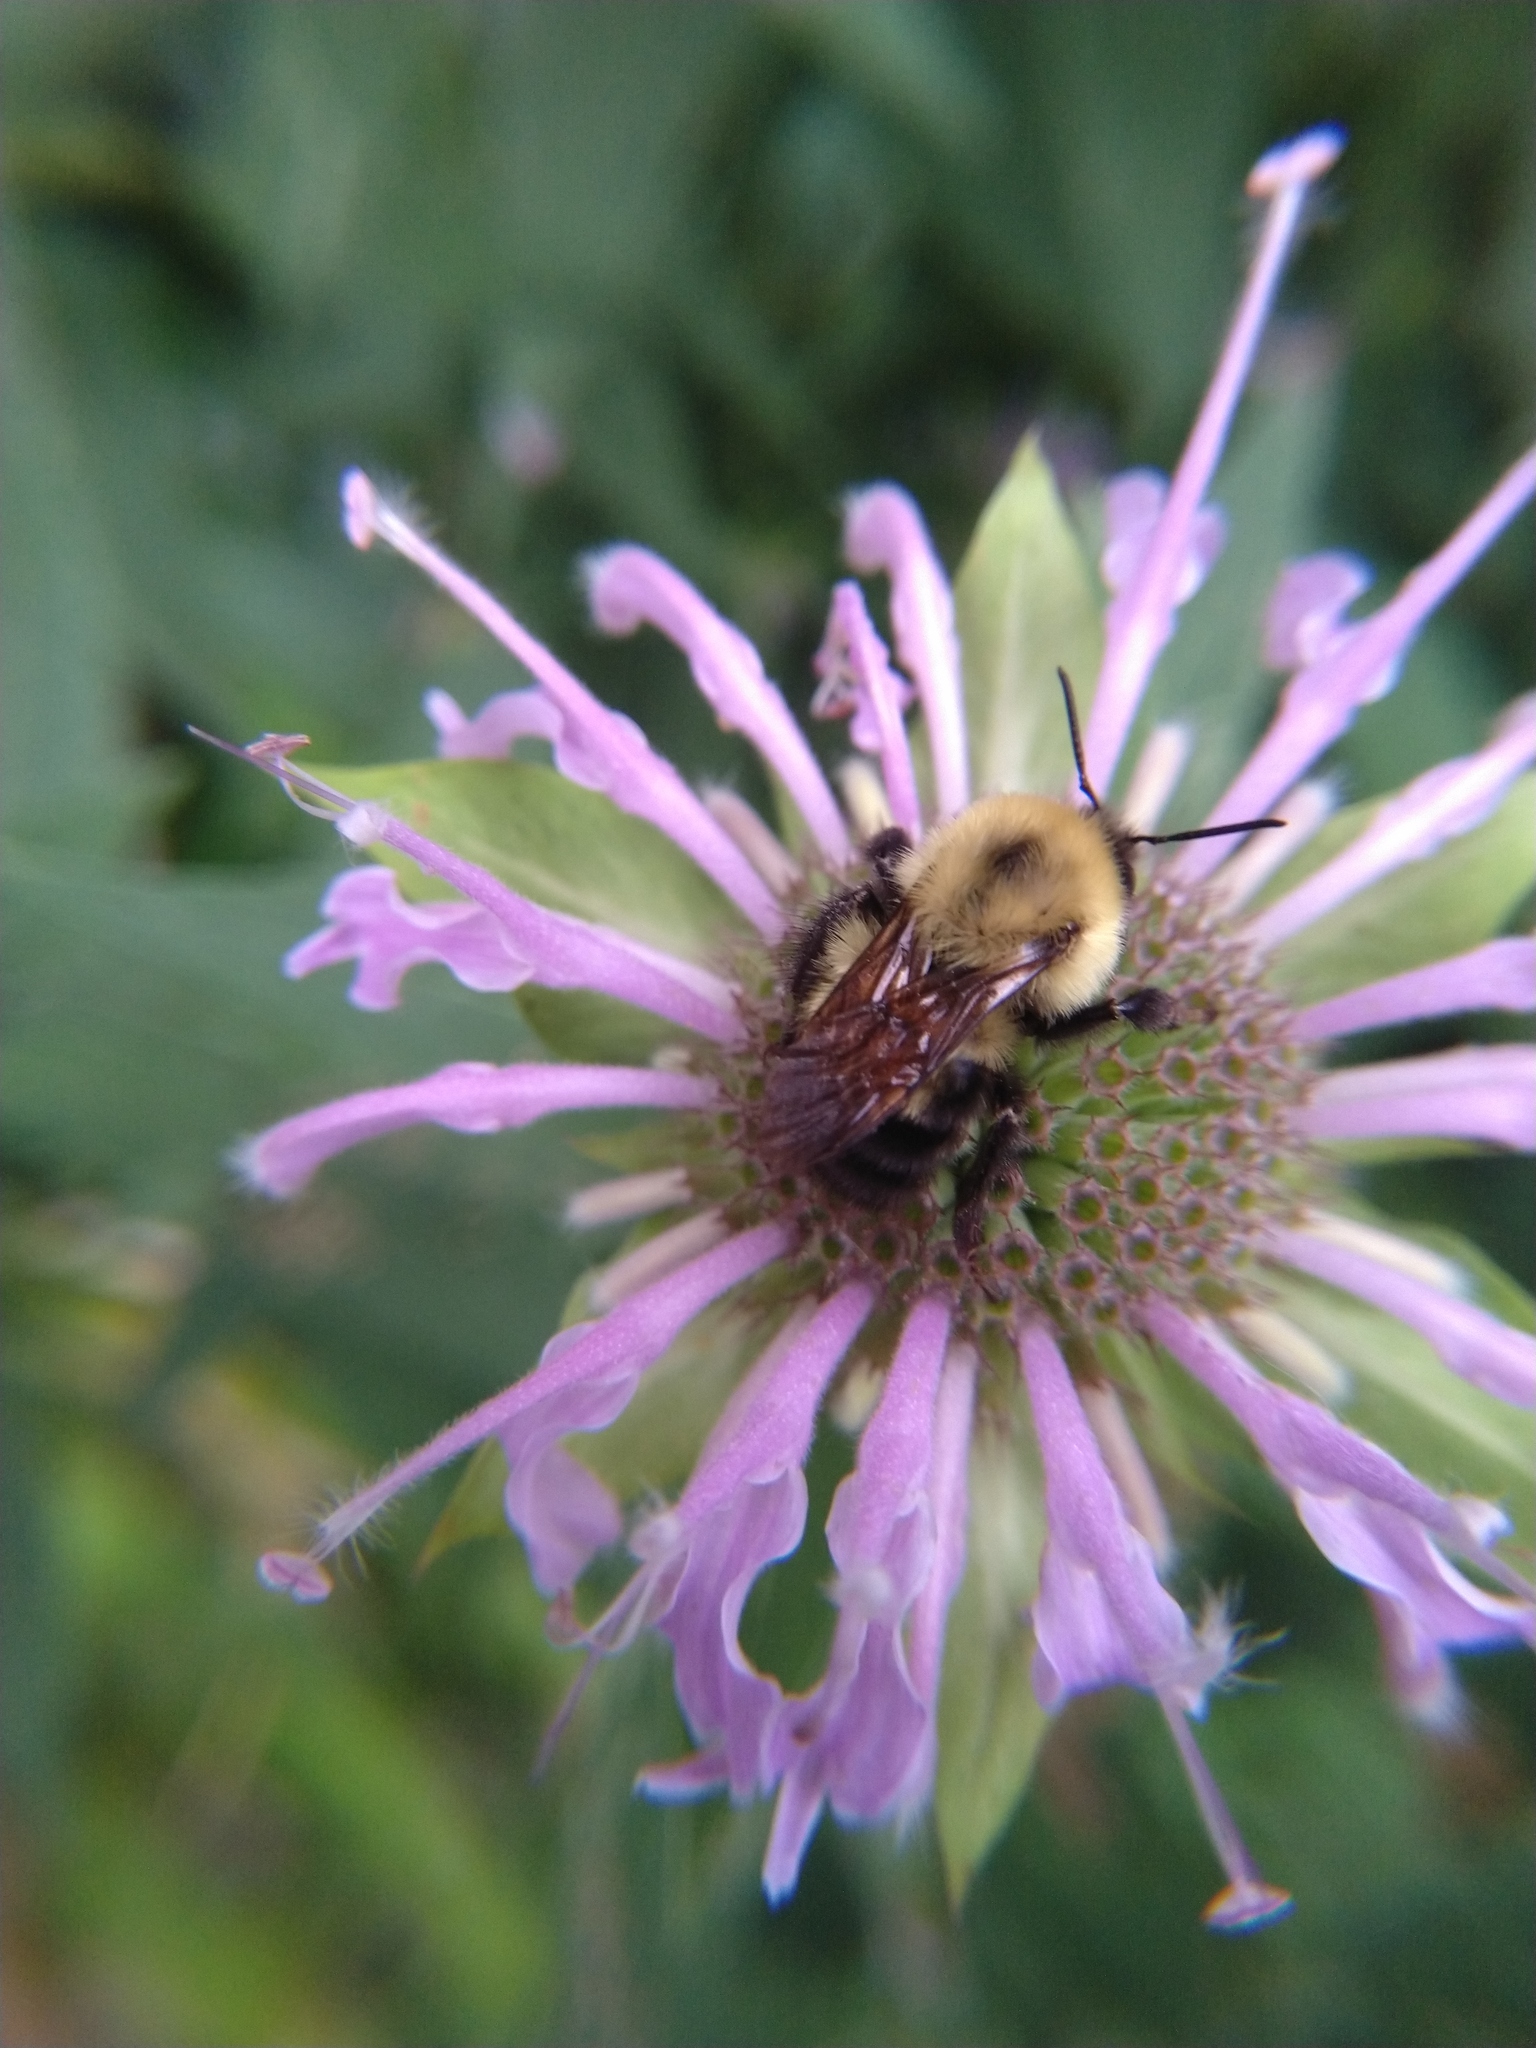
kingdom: Animalia
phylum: Arthropoda
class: Insecta
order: Hymenoptera
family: Apidae
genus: Bombus
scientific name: Bombus bimaculatus
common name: Two-spotted bumble bee
